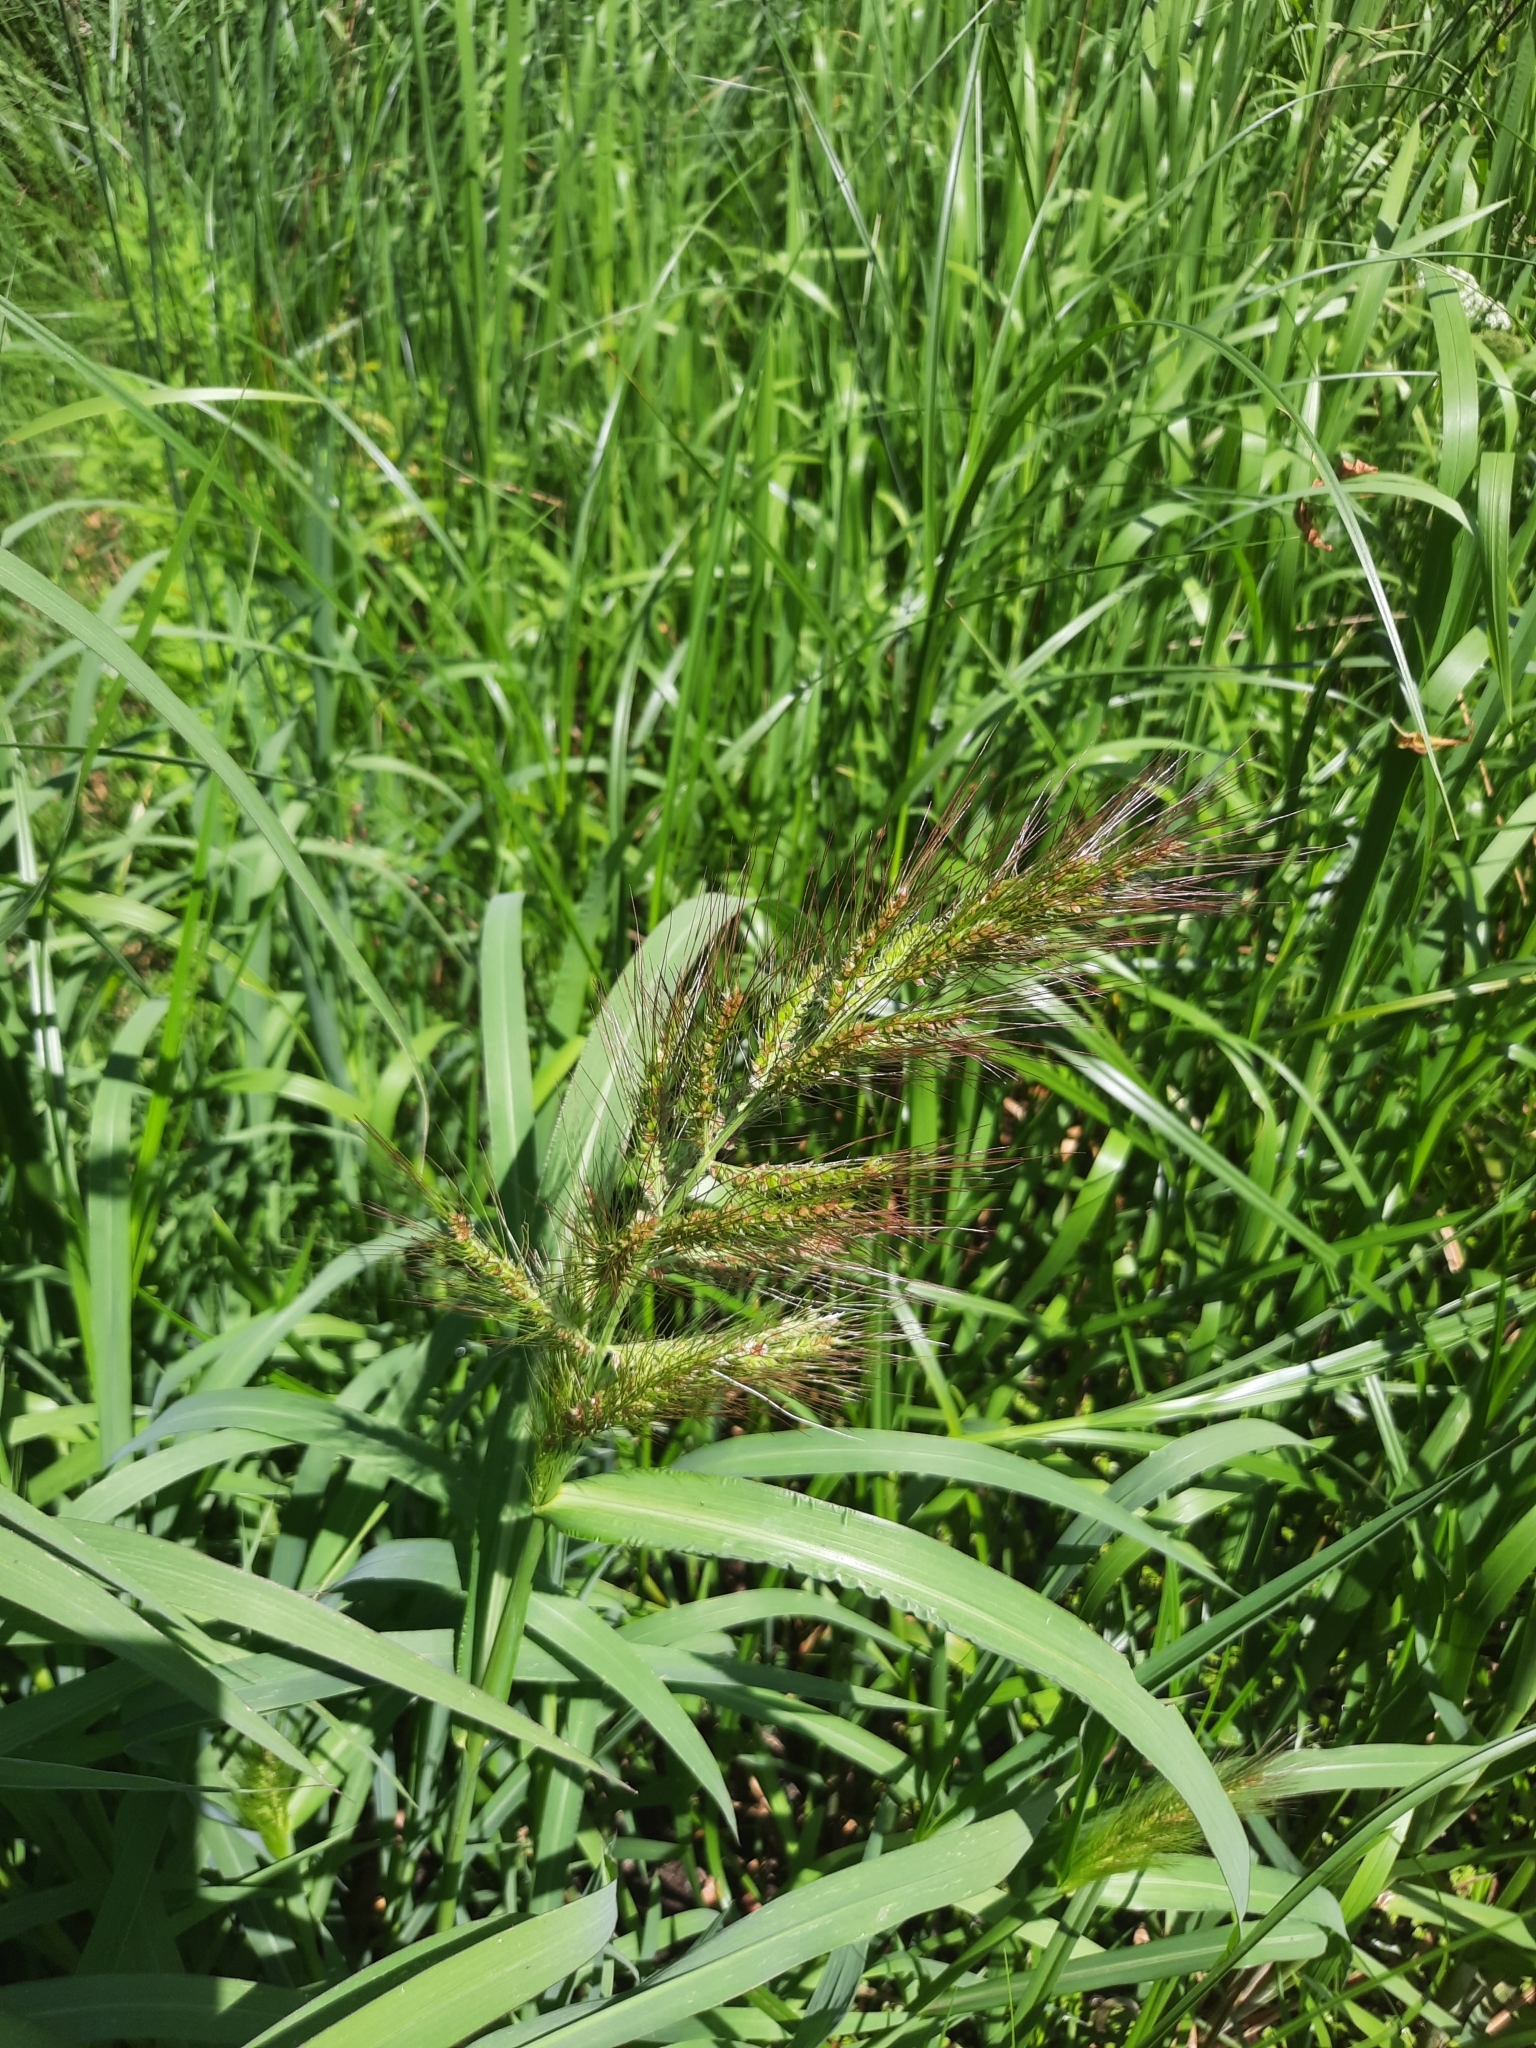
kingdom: Plantae
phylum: Tracheophyta
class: Liliopsida
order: Poales
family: Poaceae
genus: Echinochloa
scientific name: Echinochloa crus-galli
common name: Cockspur
